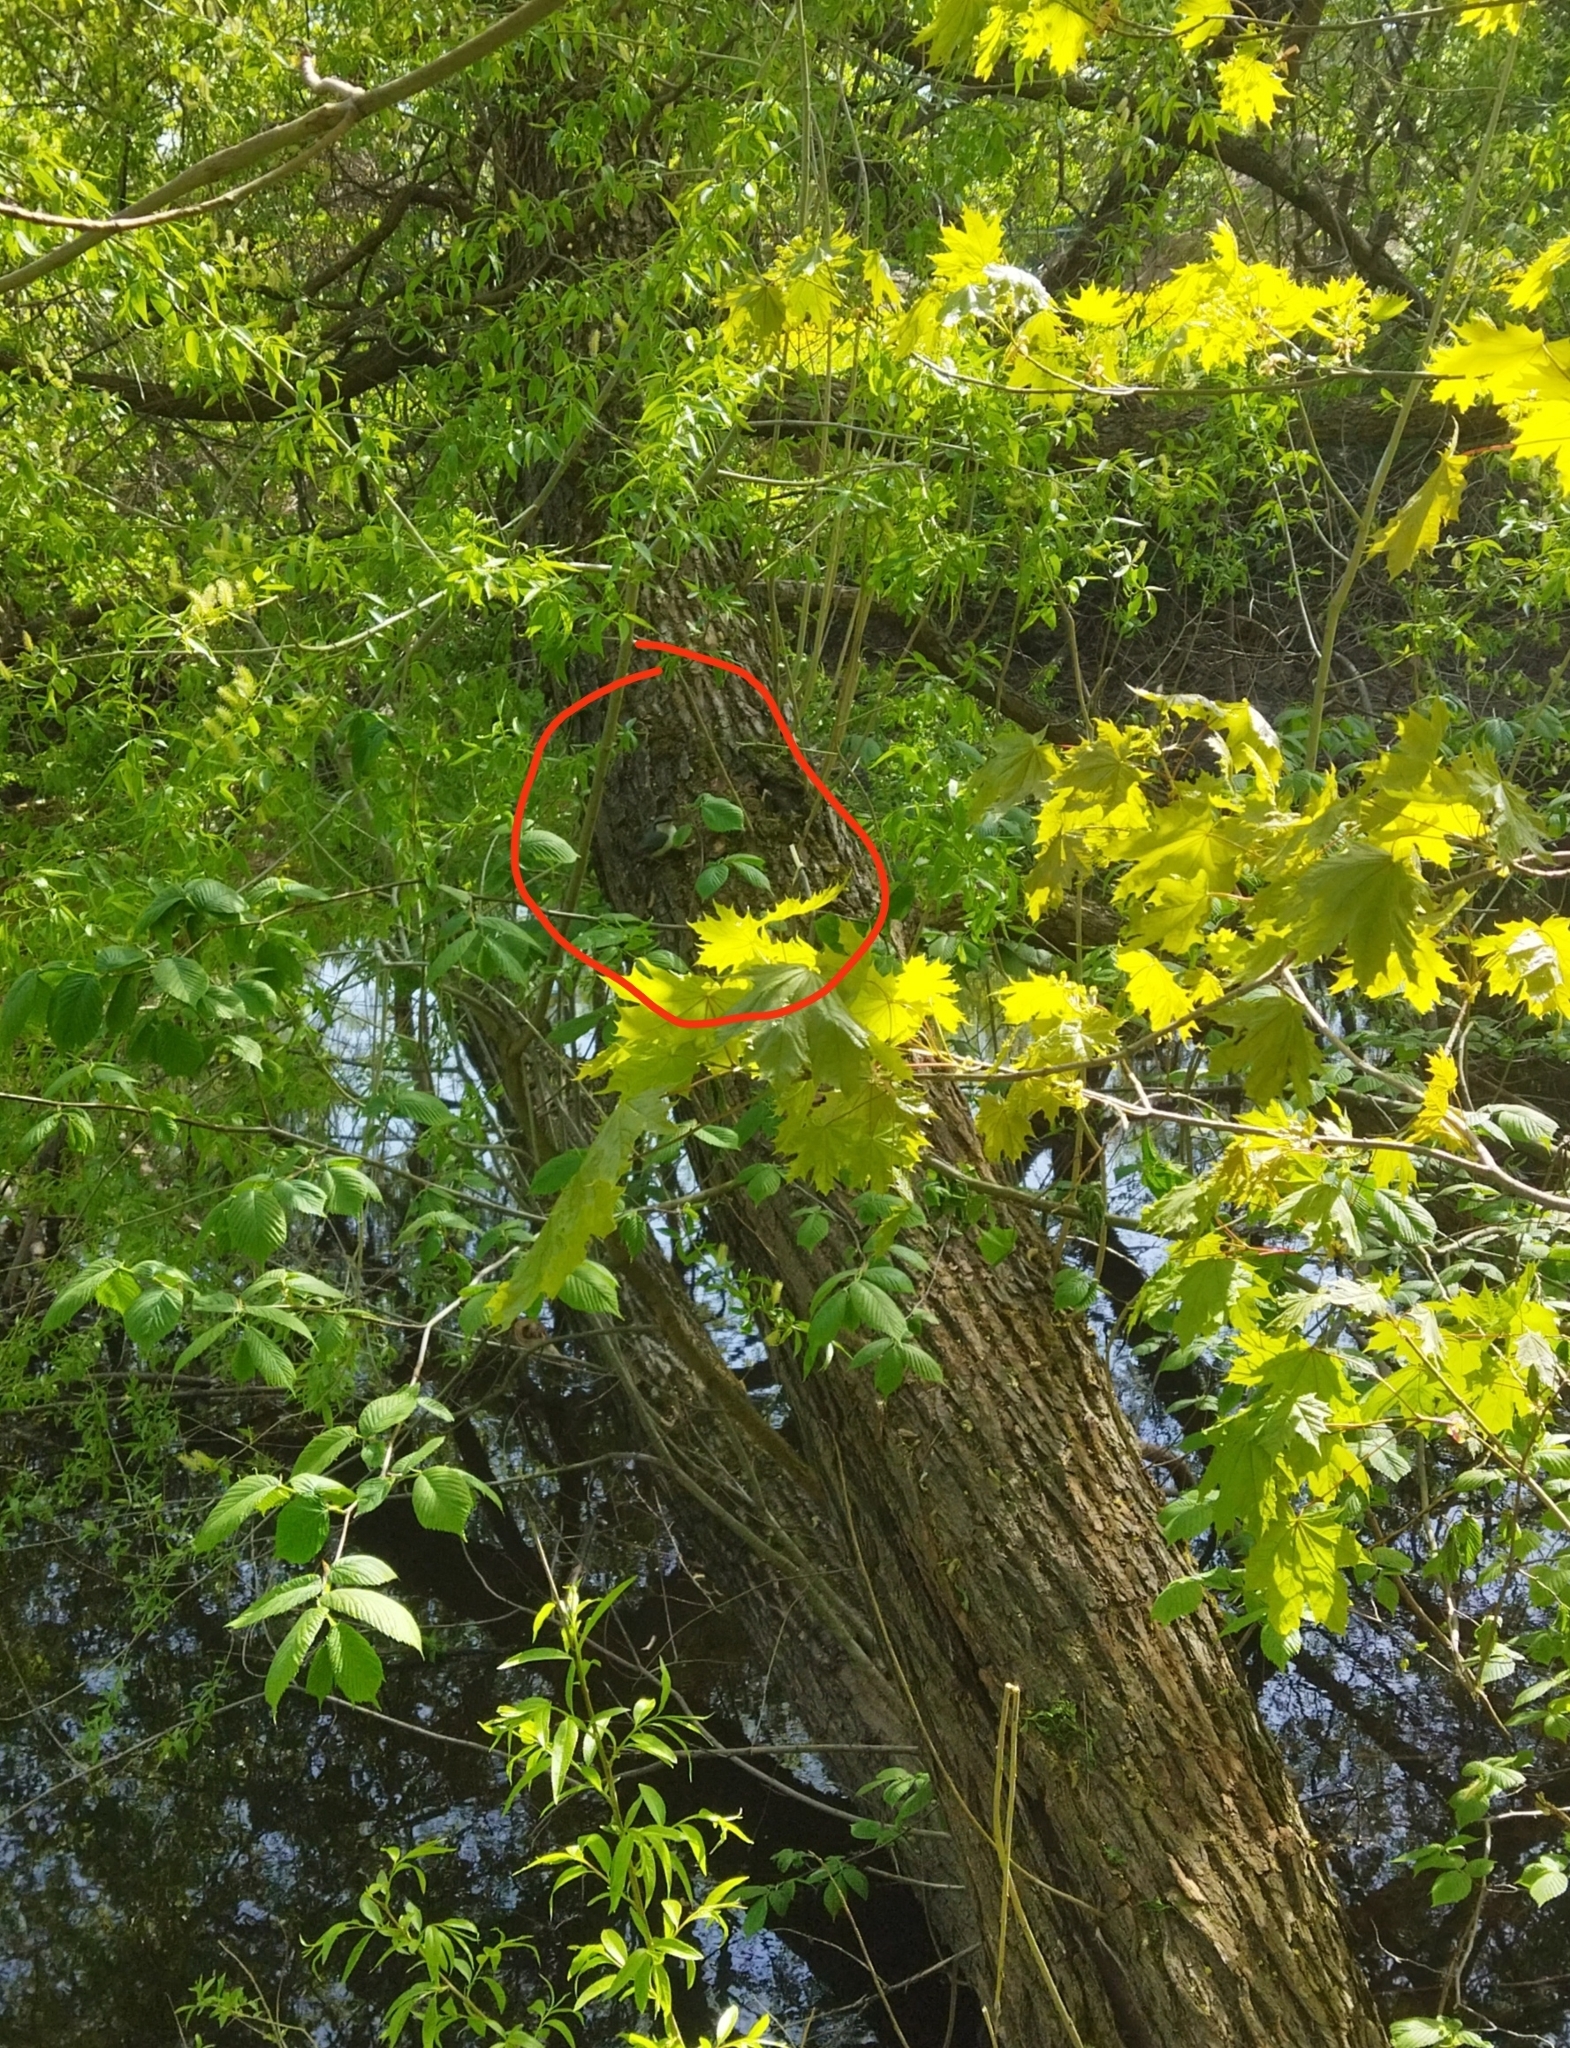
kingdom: Animalia
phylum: Chordata
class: Aves
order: Passeriformes
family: Sittidae
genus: Sitta
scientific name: Sitta europaea
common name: Eurasian nuthatch
